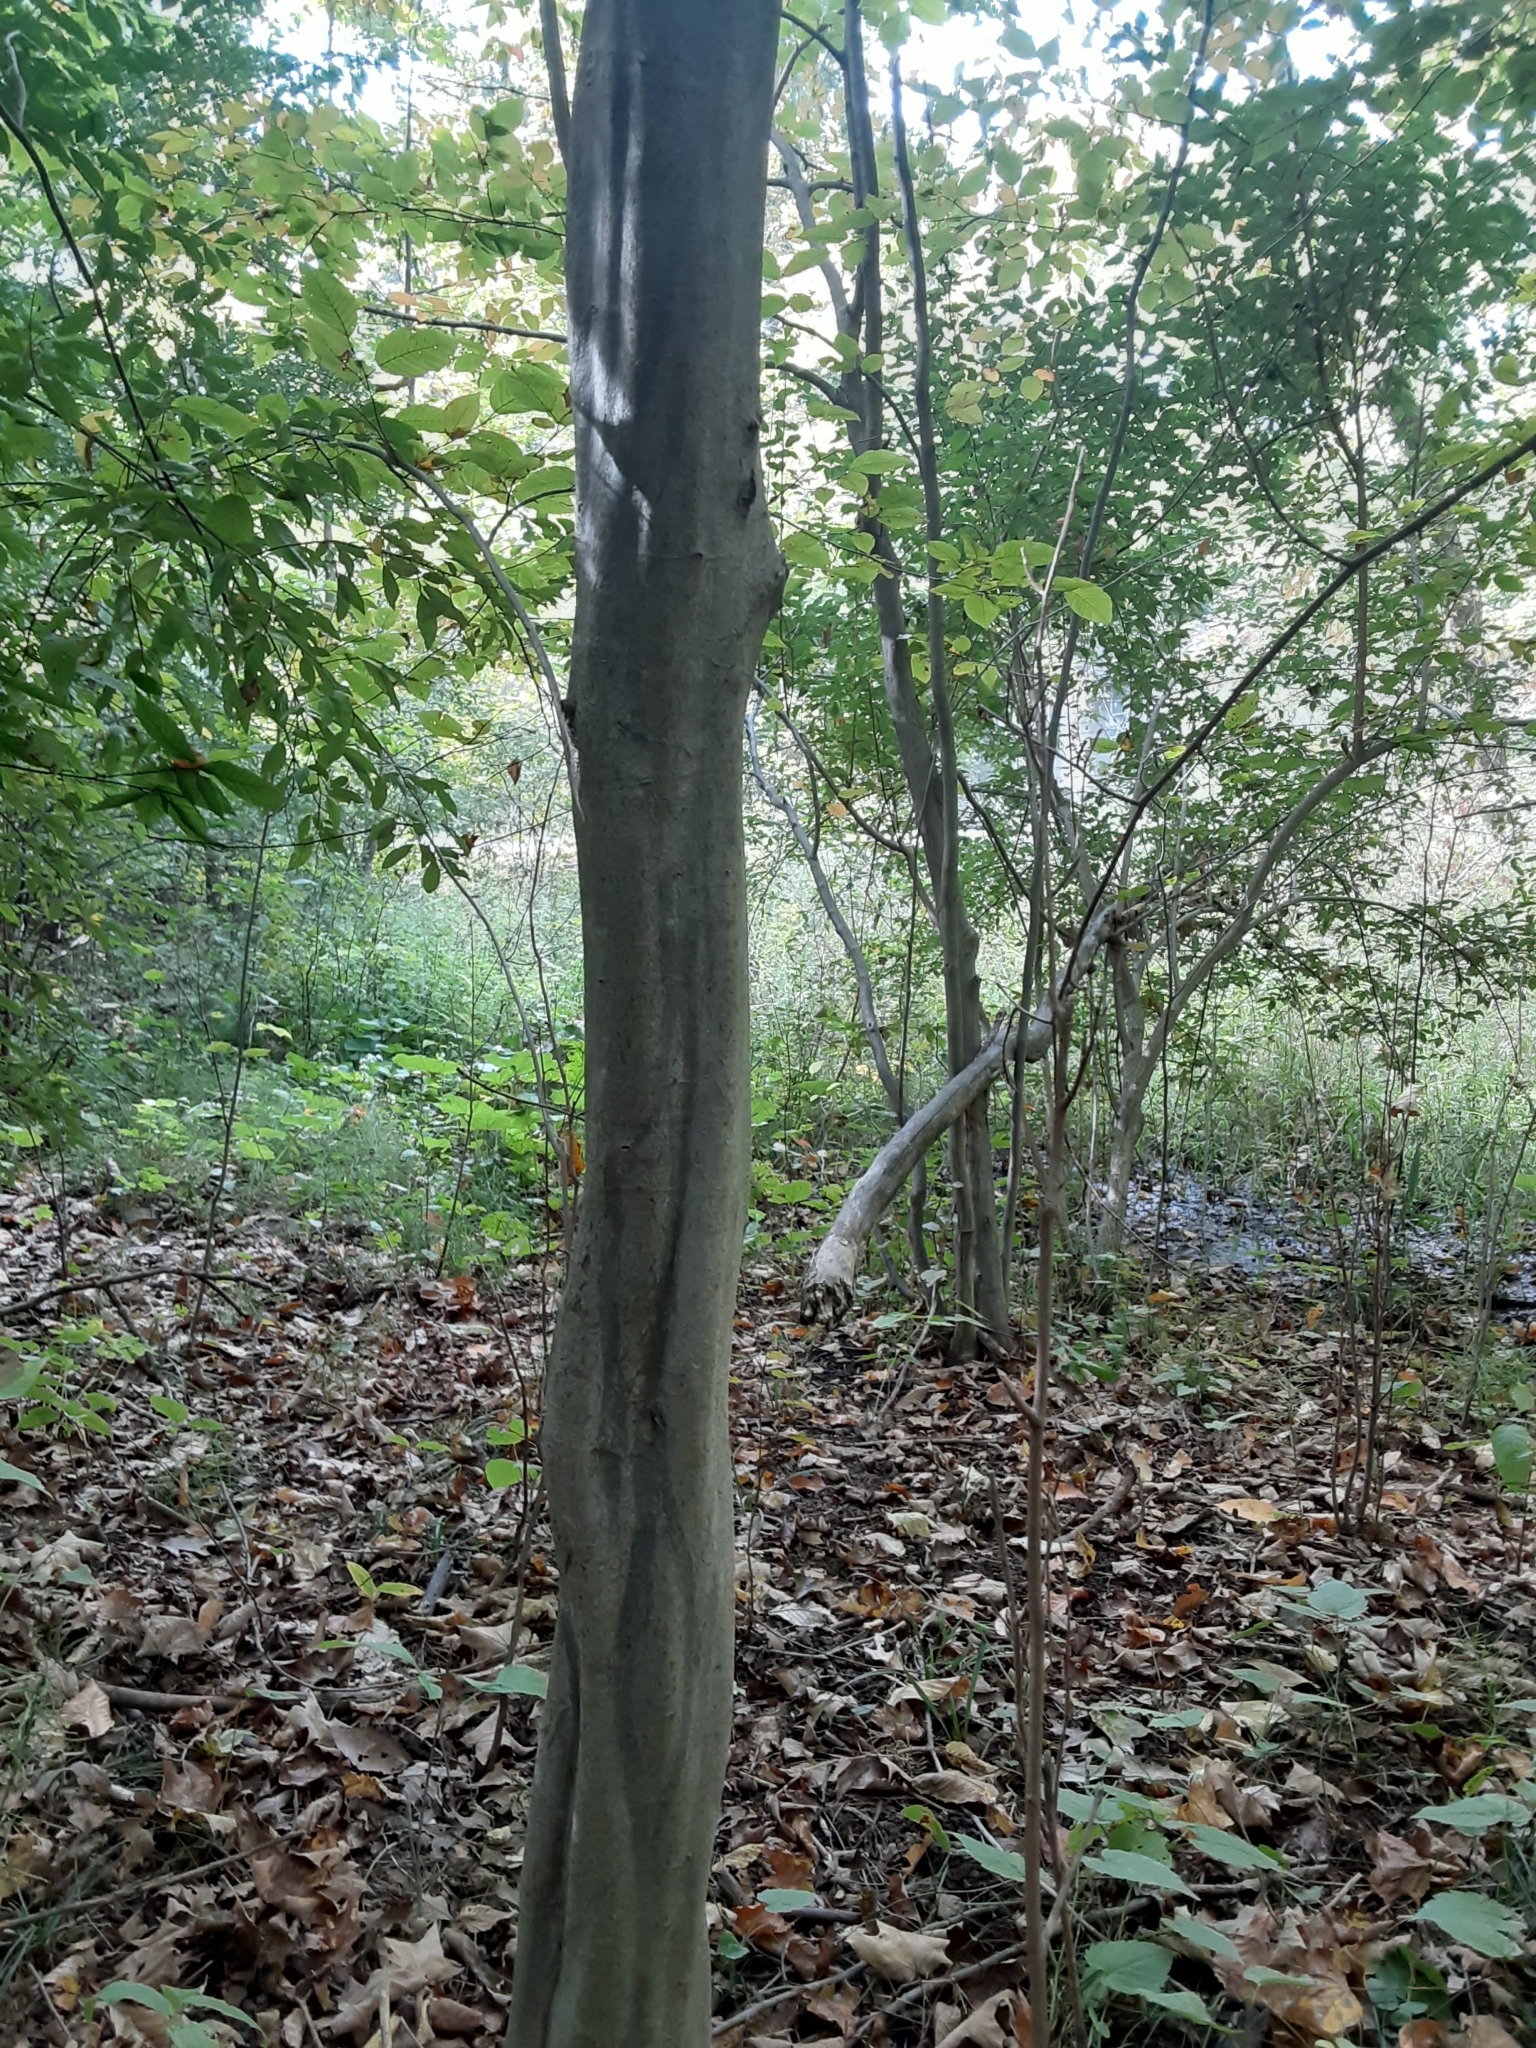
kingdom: Plantae
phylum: Tracheophyta
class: Magnoliopsida
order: Fagales
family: Betulaceae
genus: Carpinus
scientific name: Carpinus caroliniana
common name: American hornbeam
